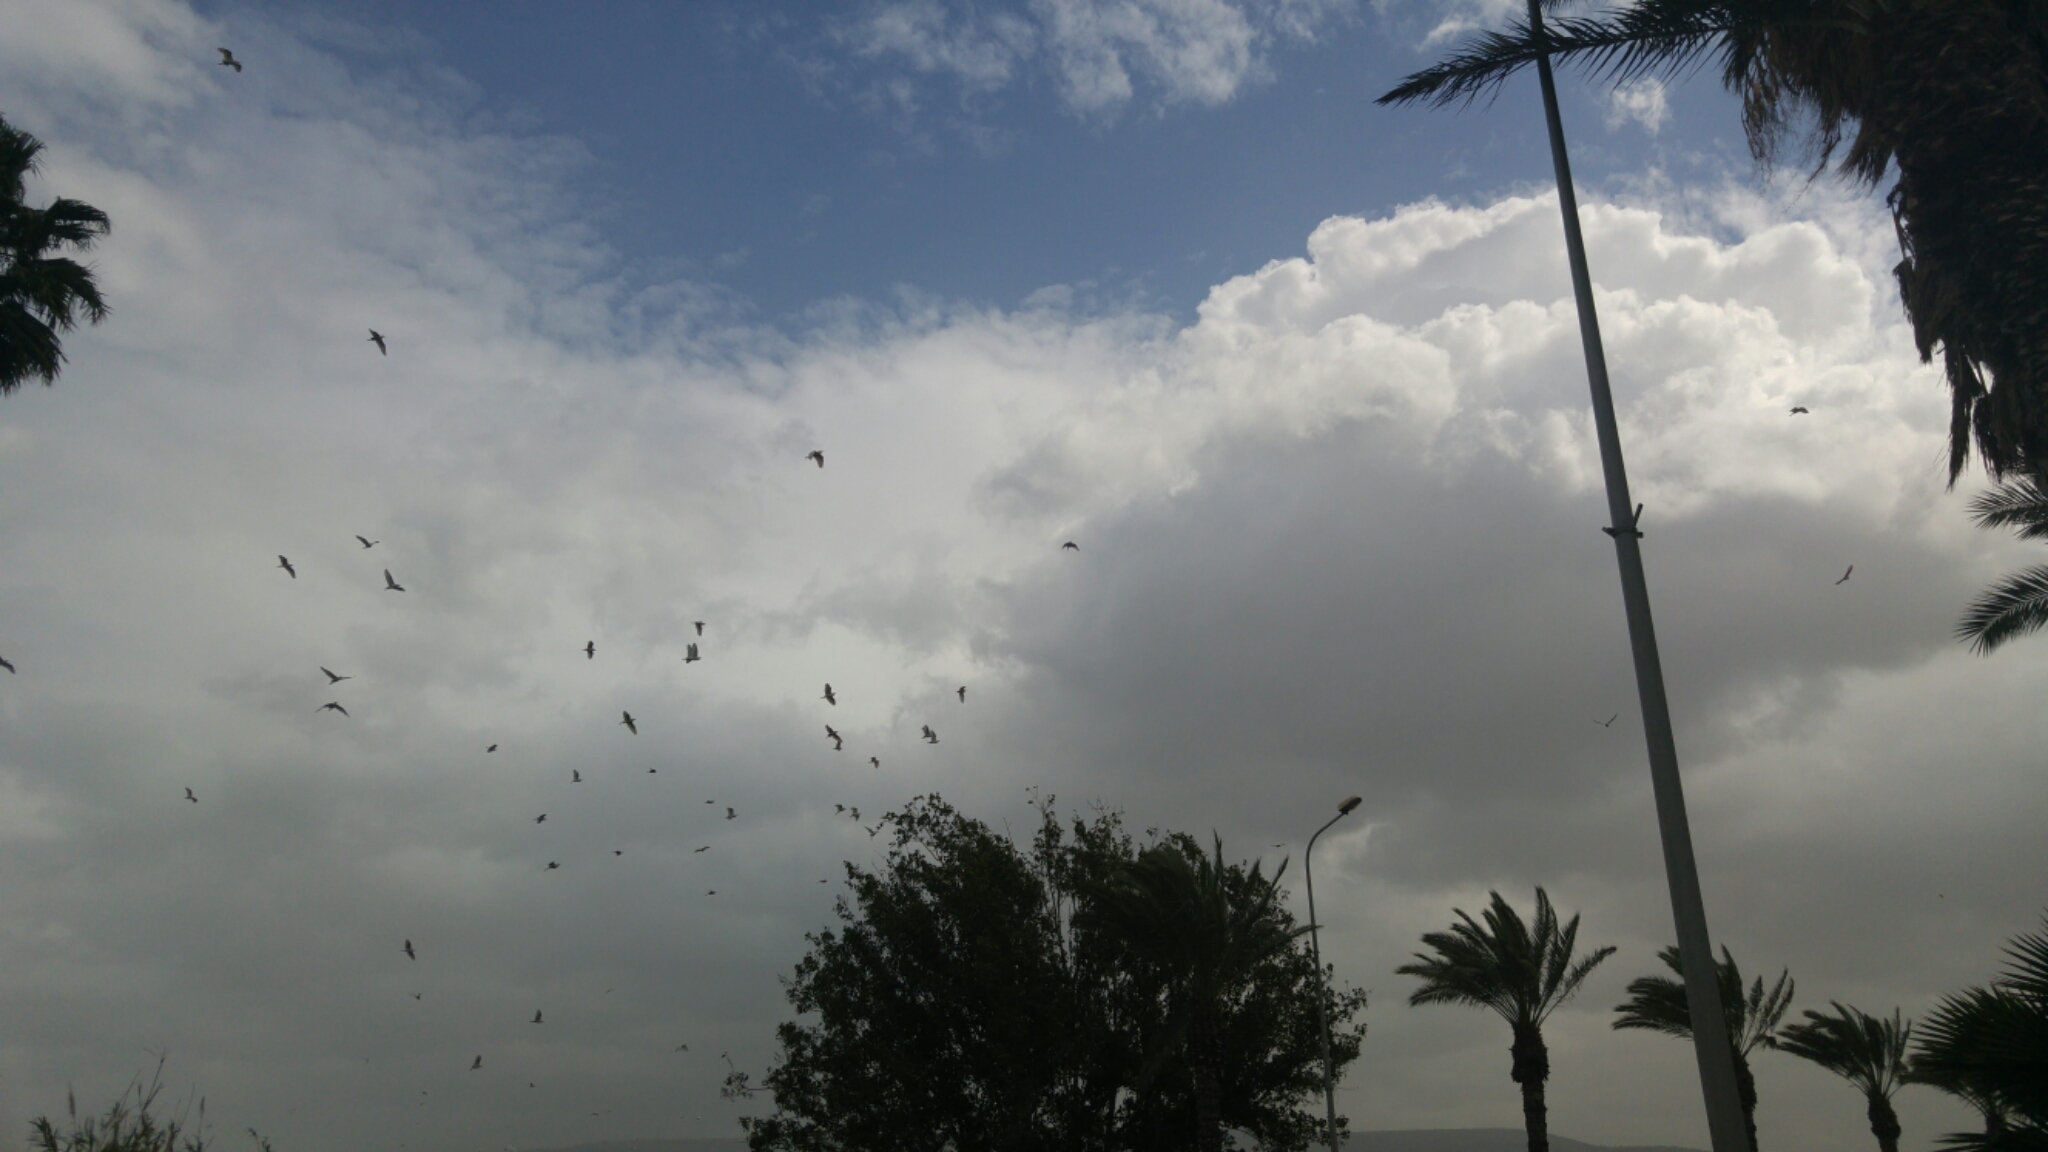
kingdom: Animalia
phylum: Chordata
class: Aves
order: Pelecaniformes
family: Ardeidae
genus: Bubulcus
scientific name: Bubulcus ibis
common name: Cattle egret
